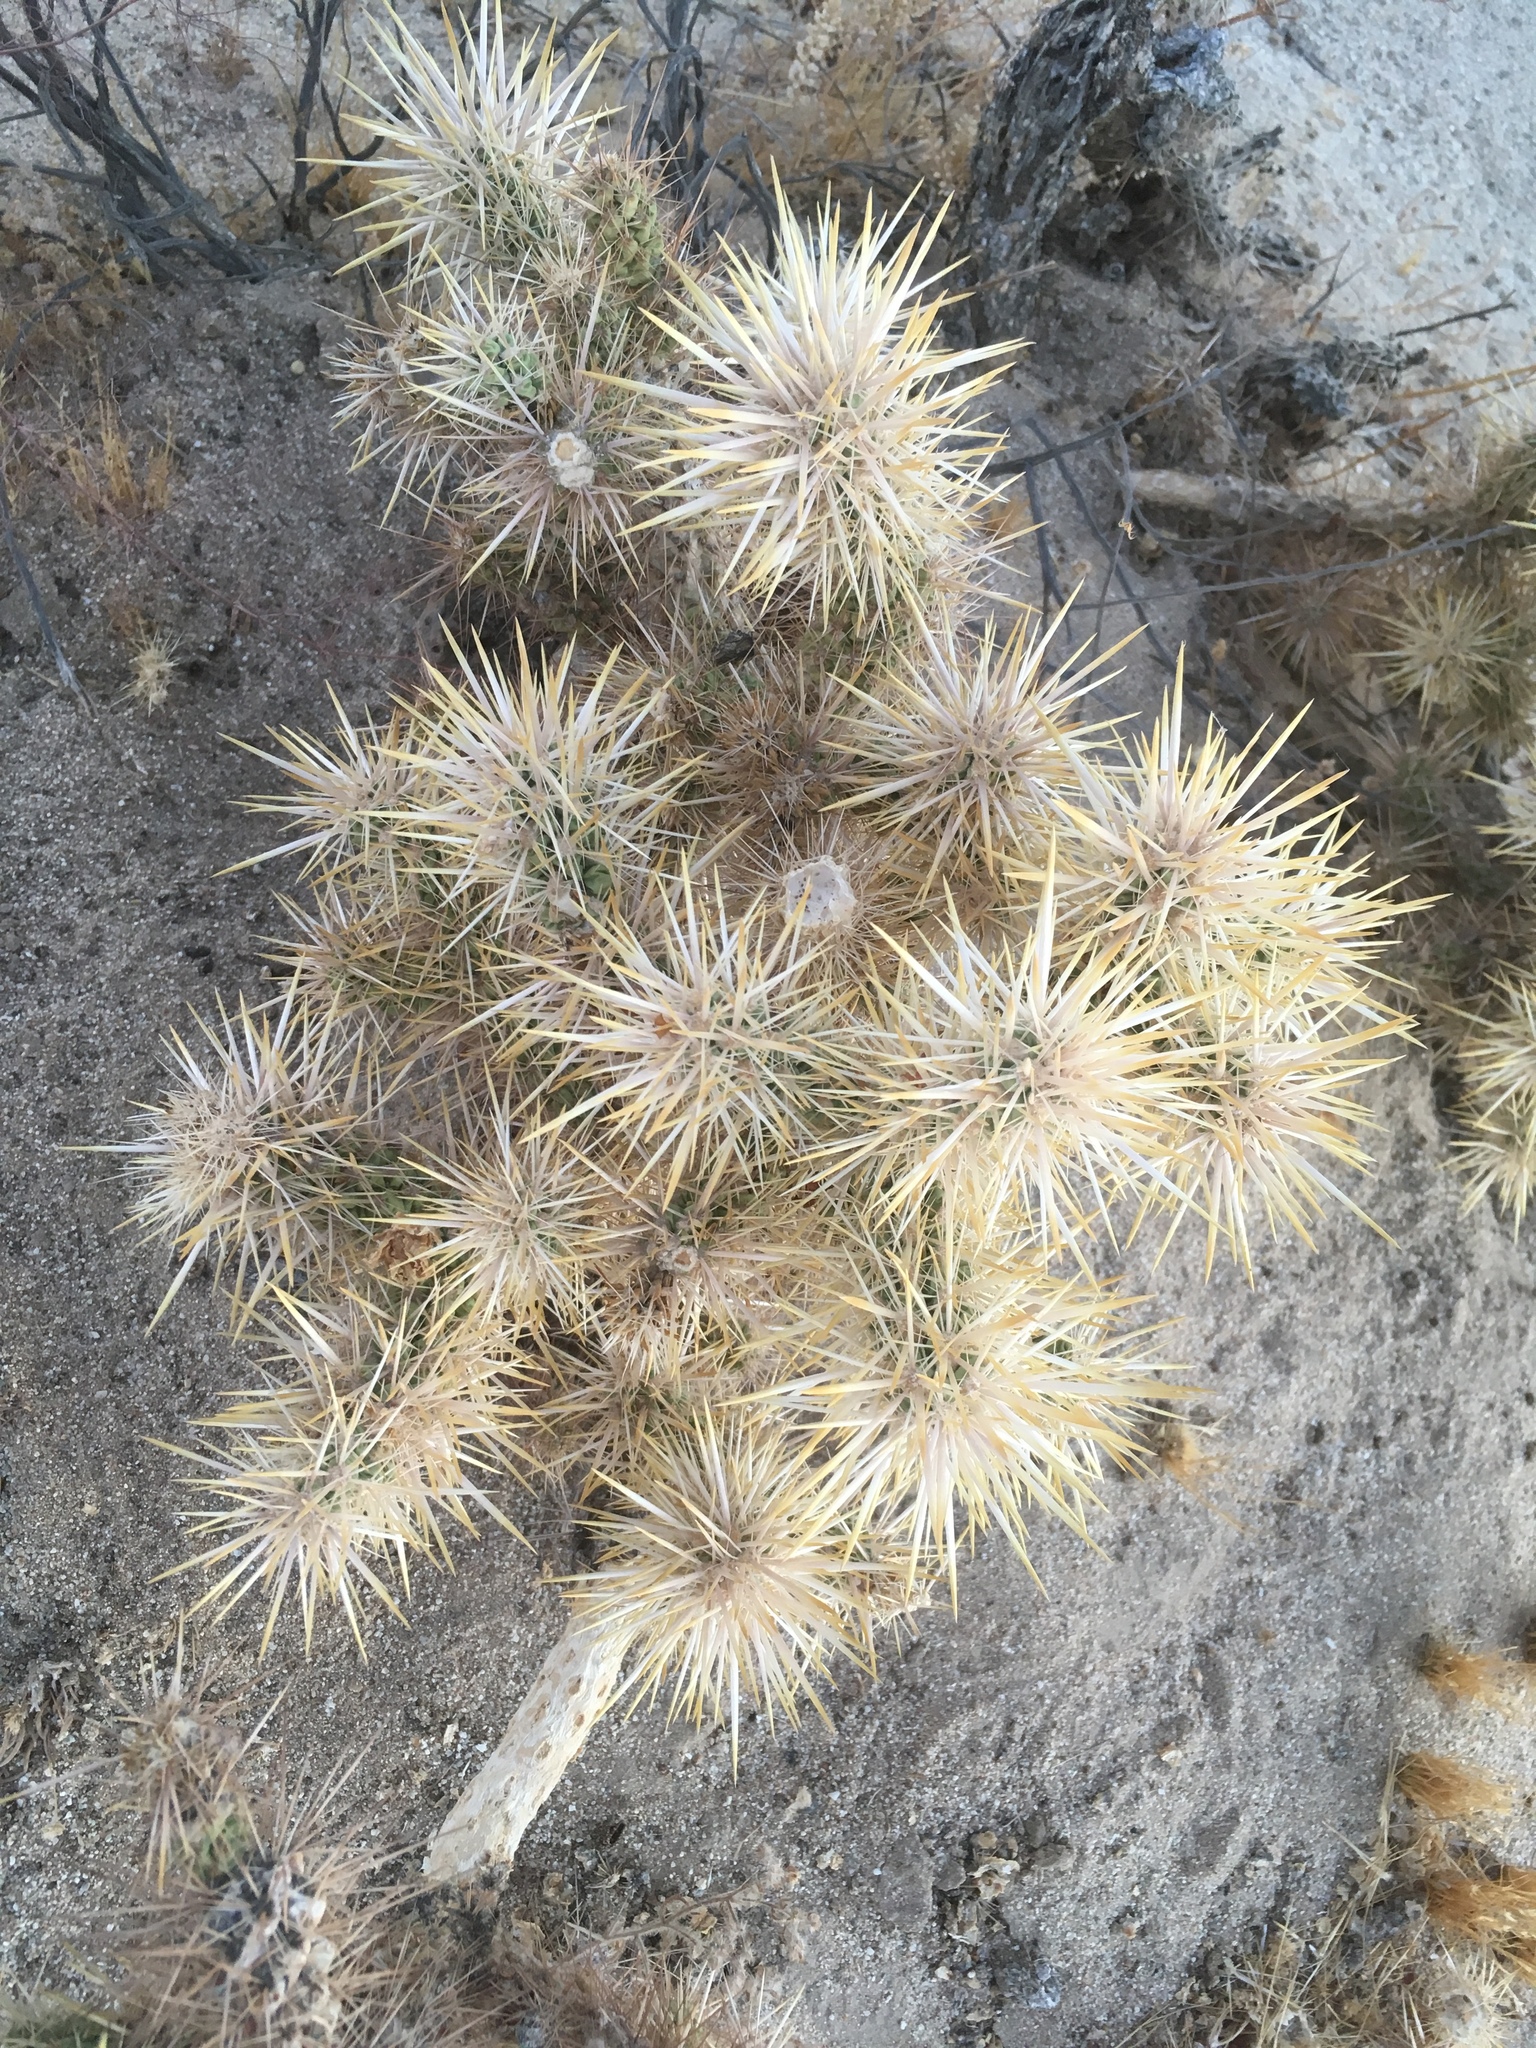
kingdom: Plantae
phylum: Tracheophyta
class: Magnoliopsida
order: Caryophyllales
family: Cactaceae
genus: Cylindropuntia
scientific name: Cylindropuntia echinocarpa
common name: Ground cholla
